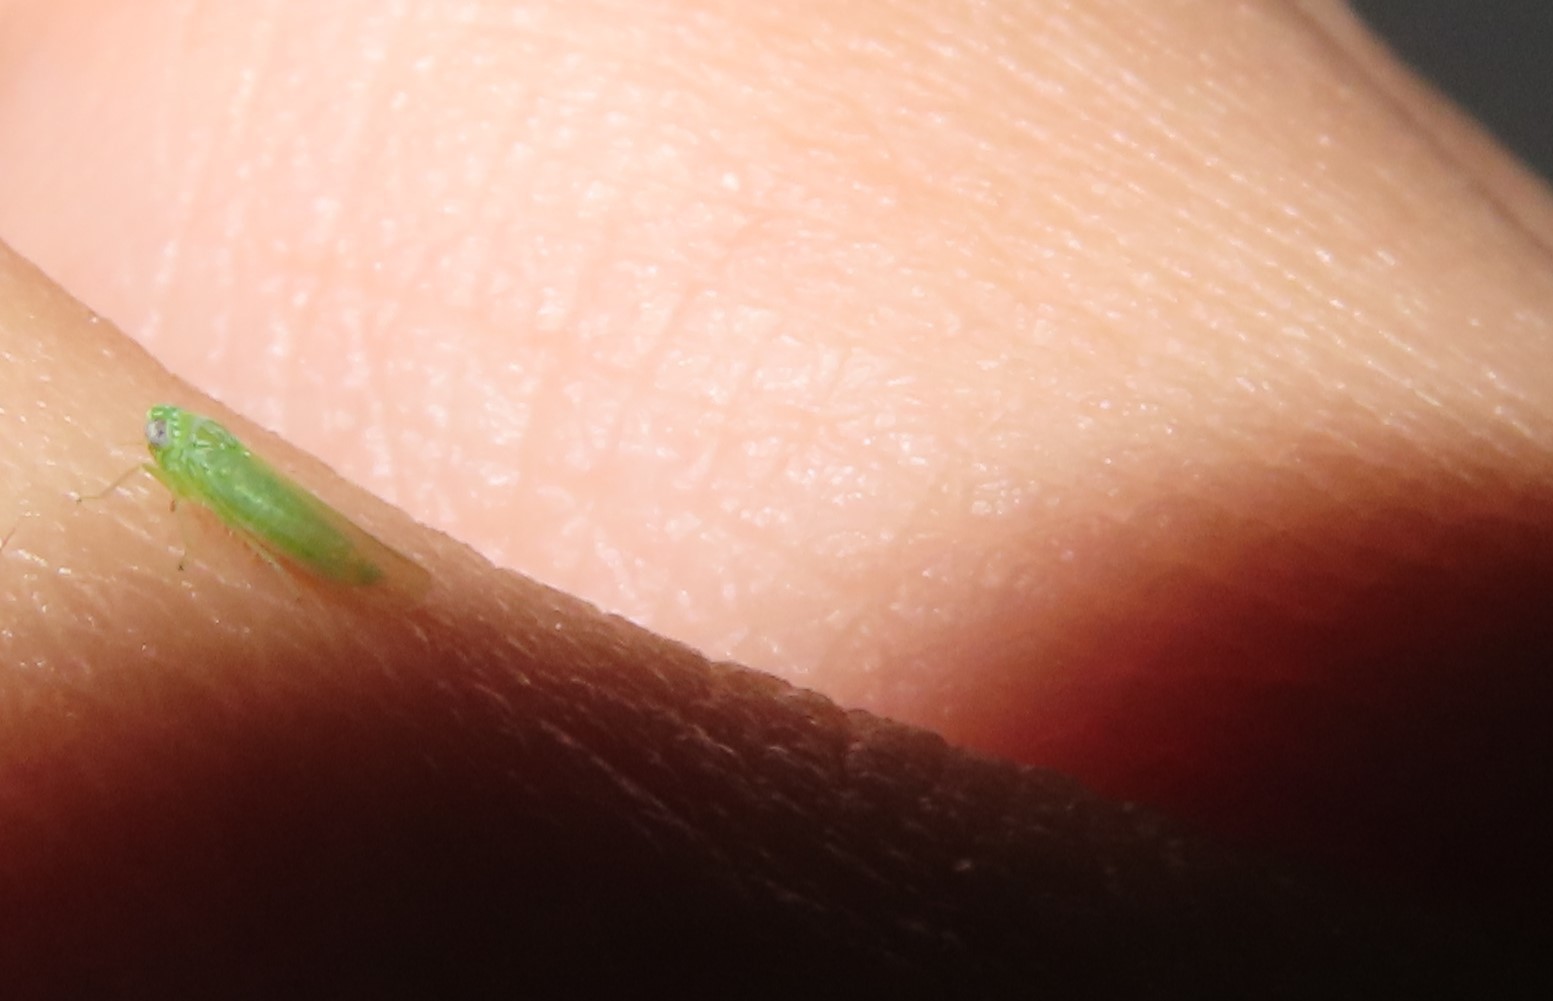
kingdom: Animalia
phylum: Arthropoda
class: Insecta
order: Hemiptera
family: Cicadellidae
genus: Empoasca
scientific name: Empoasca fabae
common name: Potato leafhopper
